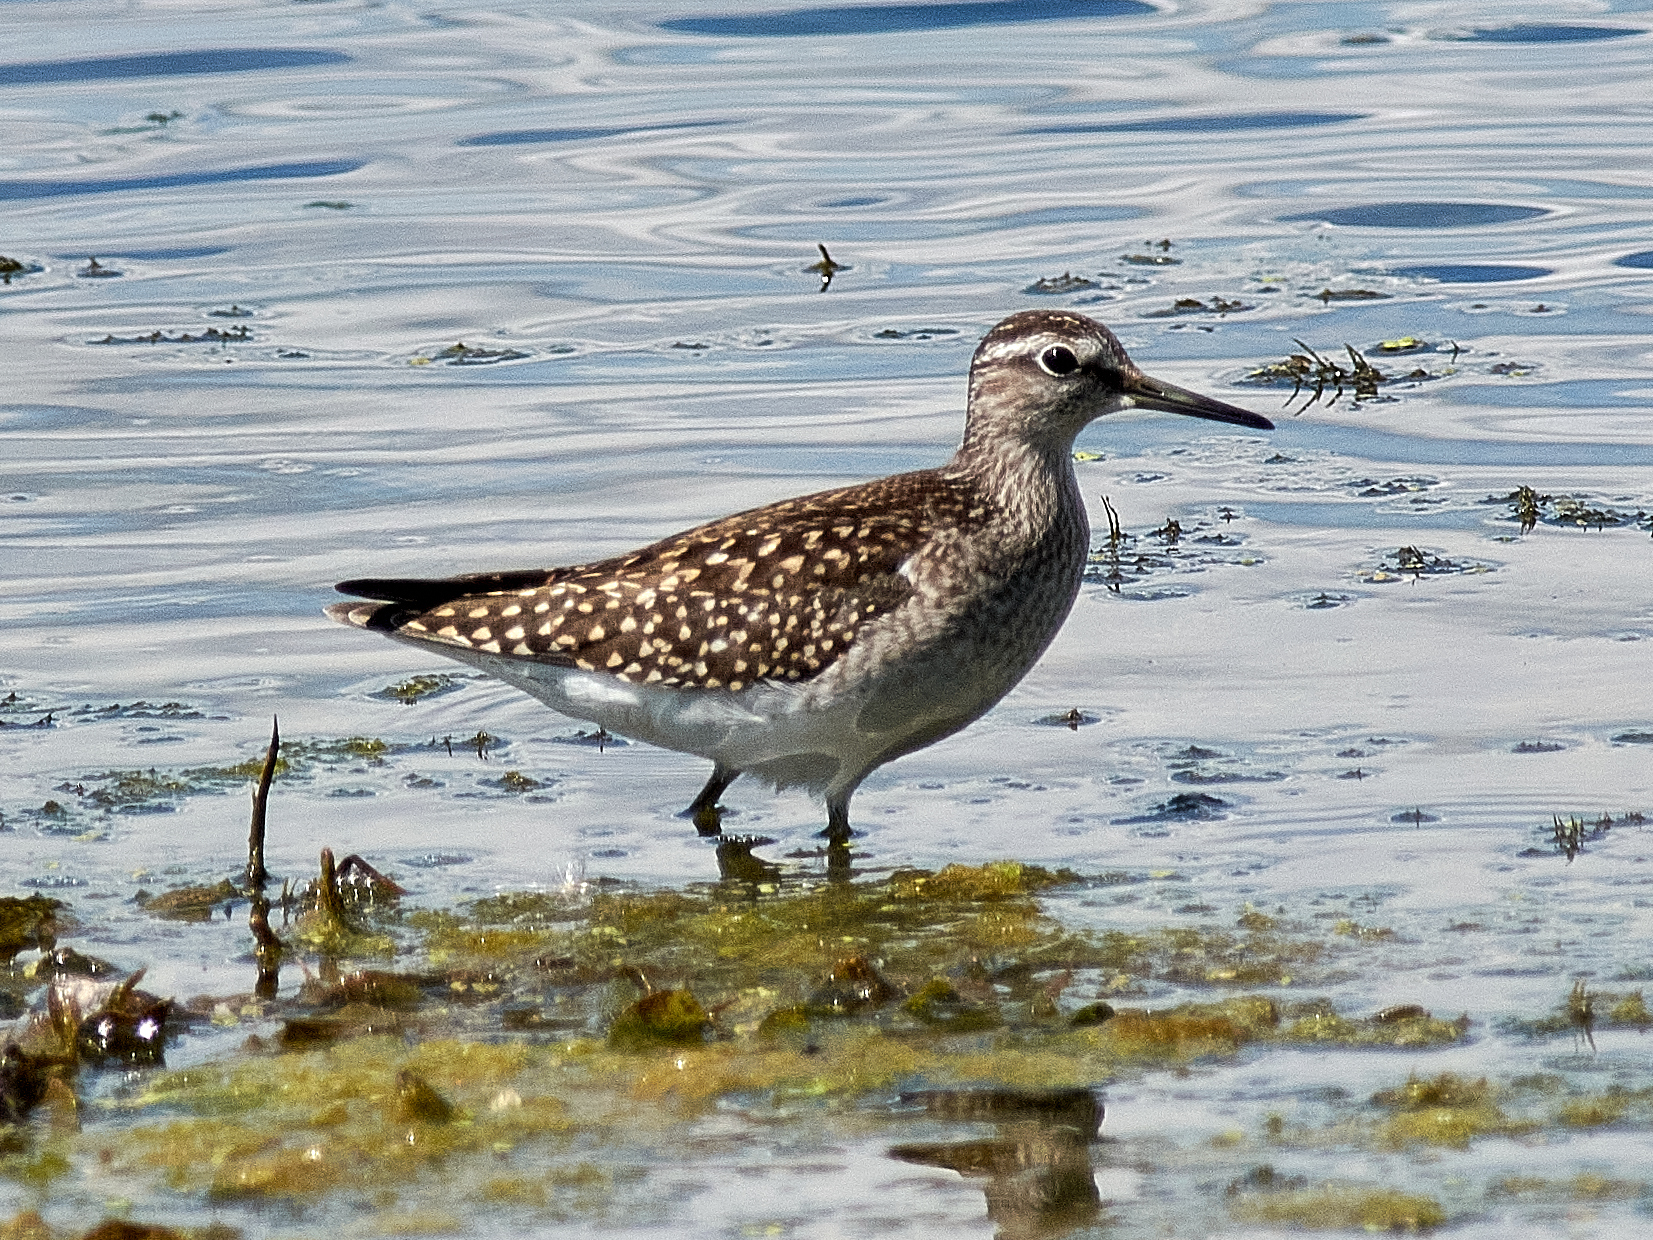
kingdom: Animalia
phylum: Chordata
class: Aves
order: Charadriiformes
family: Scolopacidae
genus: Tringa
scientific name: Tringa glareola
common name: Wood sandpiper
